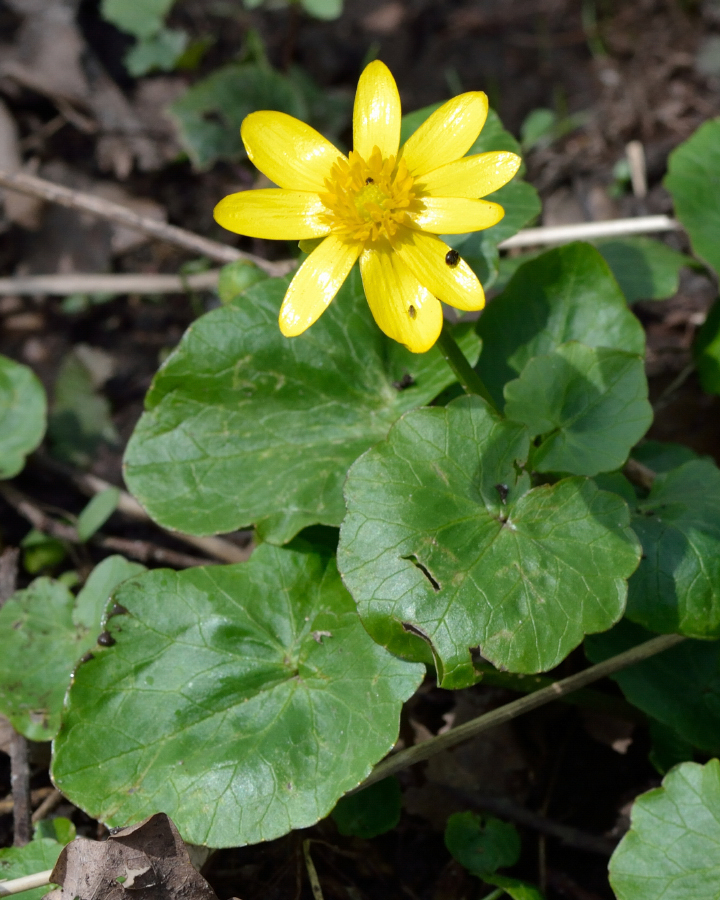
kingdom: Plantae
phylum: Tracheophyta
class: Magnoliopsida
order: Ranunculales
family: Ranunculaceae
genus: Ficaria
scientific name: Ficaria verna
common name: Lesser celandine
